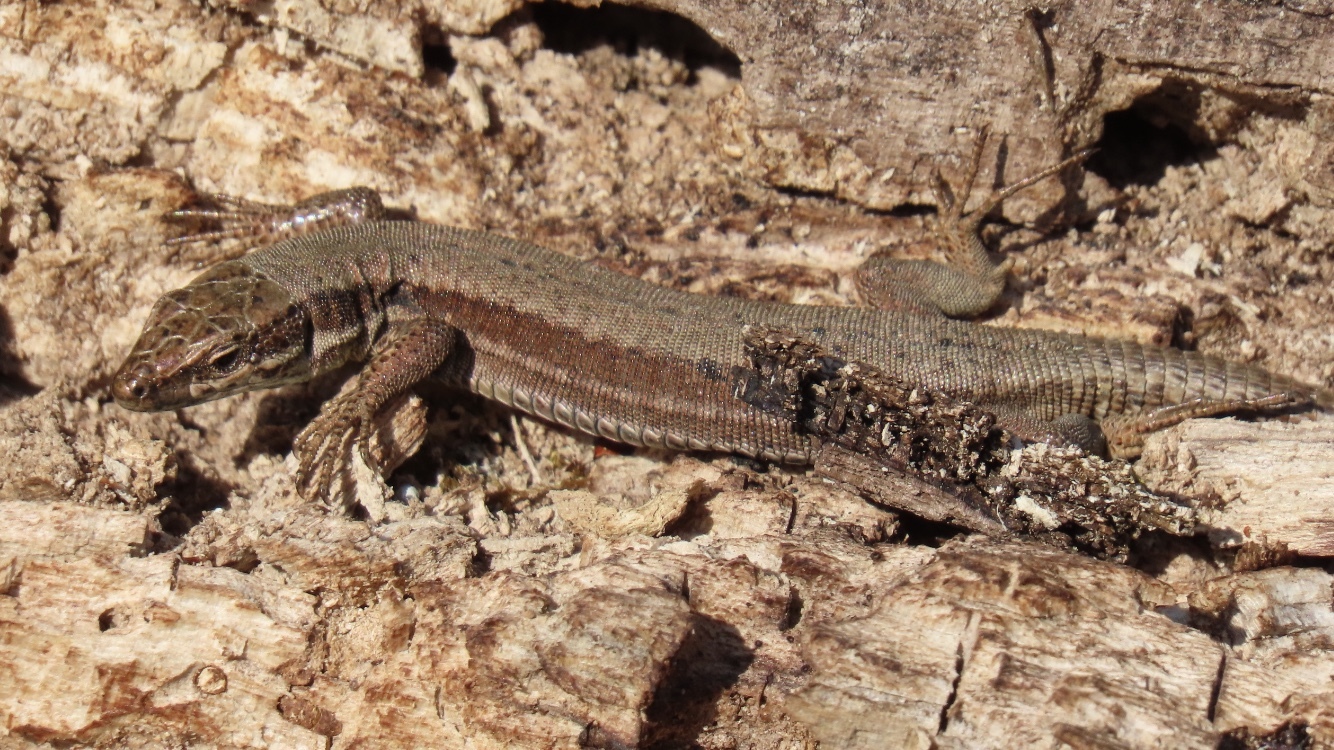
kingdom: Animalia
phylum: Chordata
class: Squamata
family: Lacertidae
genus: Podarcis
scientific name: Podarcis muralis
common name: Common wall lizard
